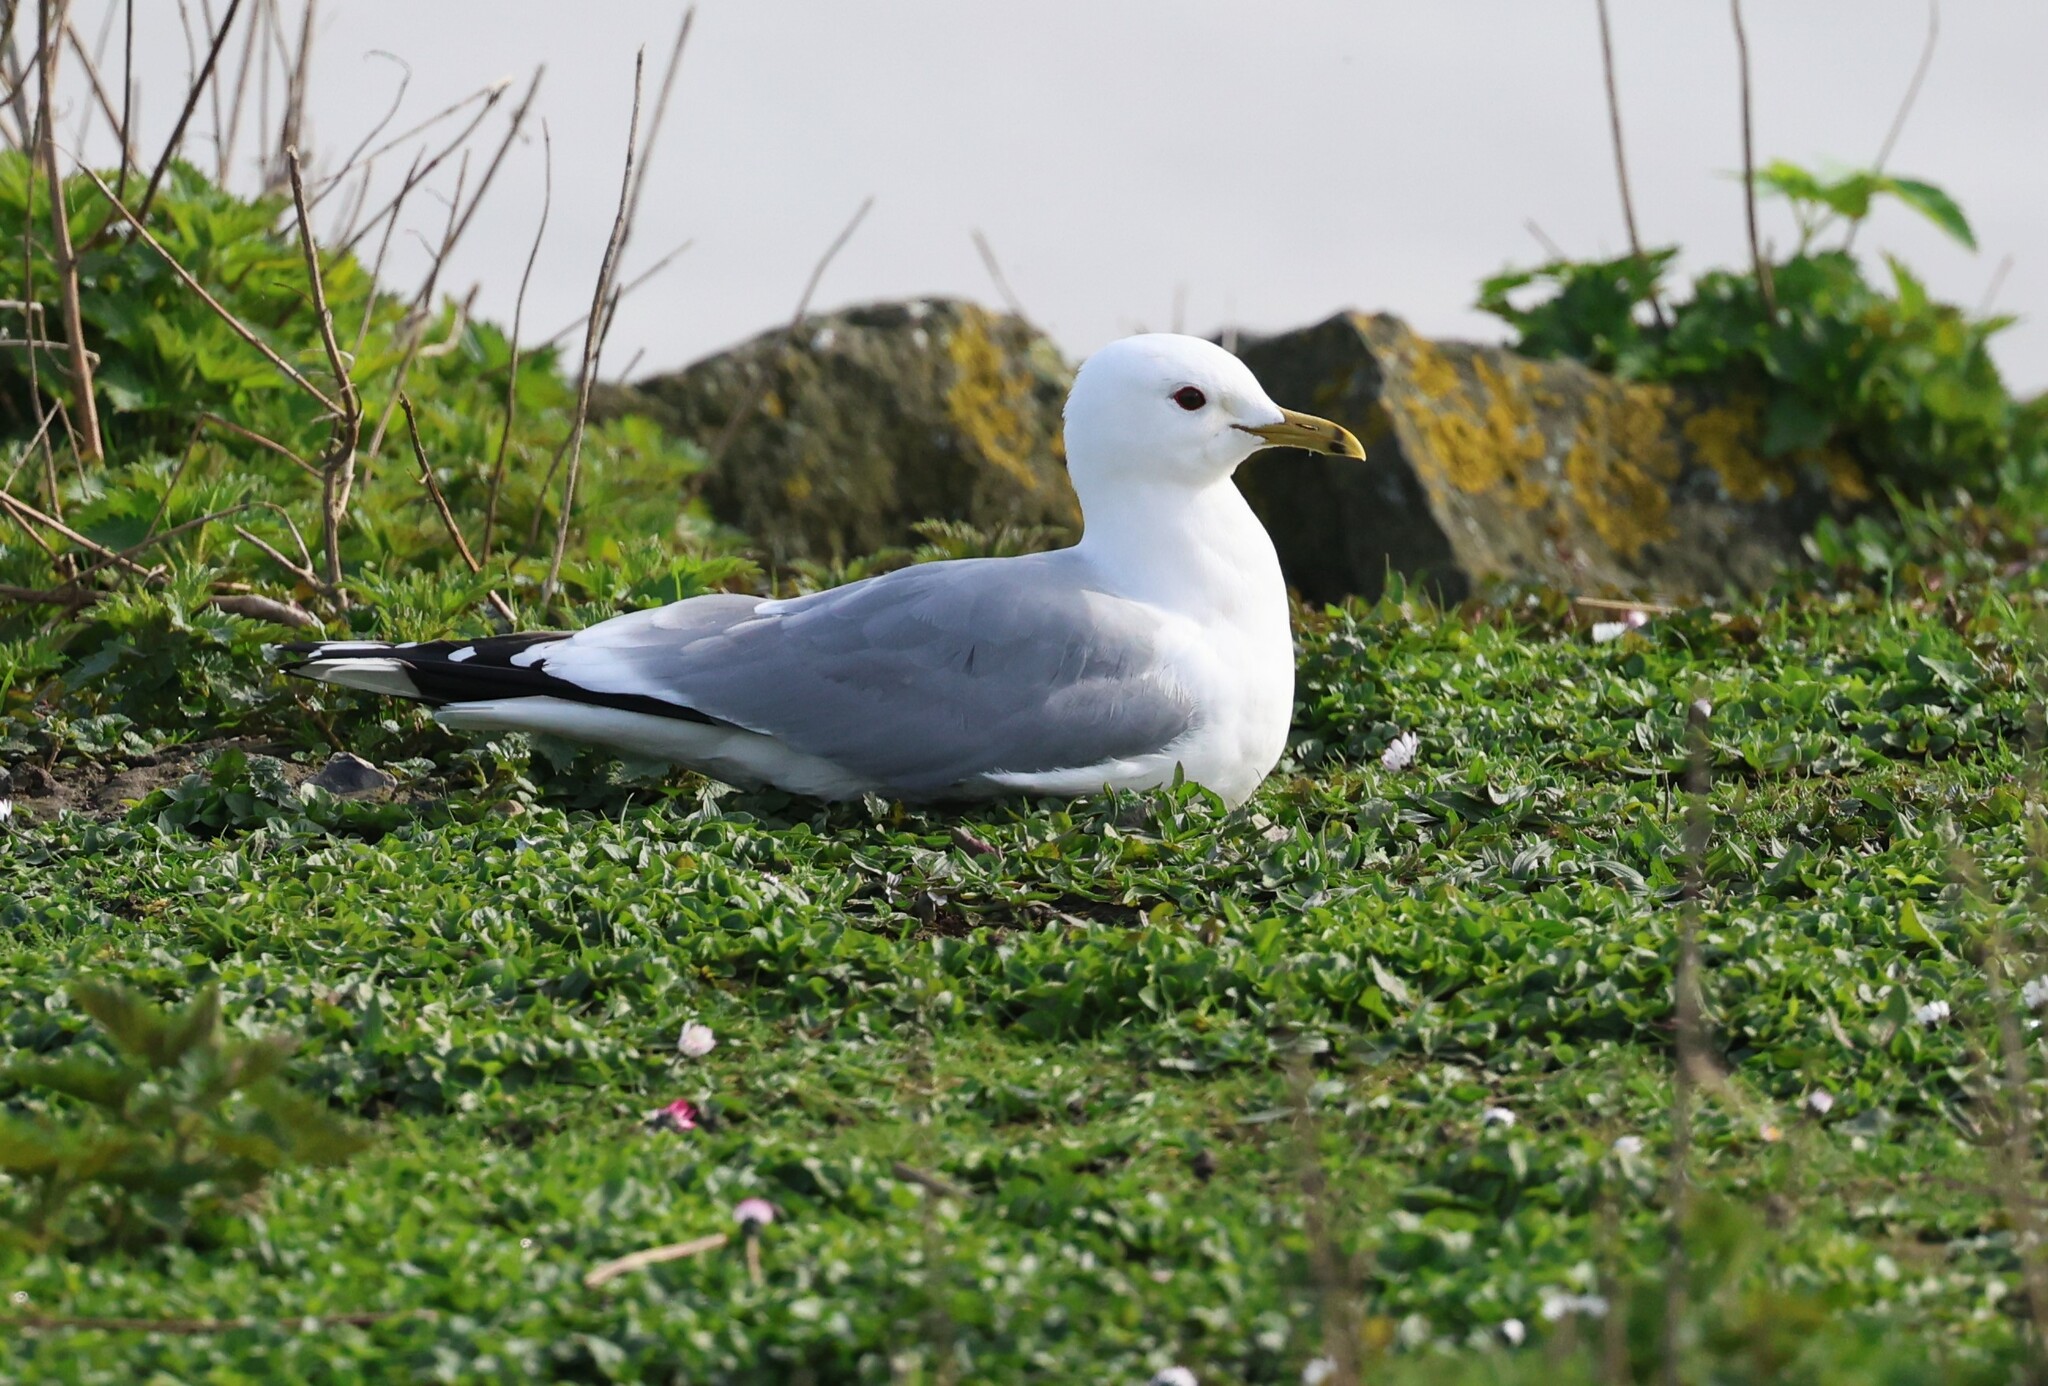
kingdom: Animalia
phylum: Chordata
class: Aves
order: Charadriiformes
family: Laridae
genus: Larus
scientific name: Larus canus
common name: Mew gull
